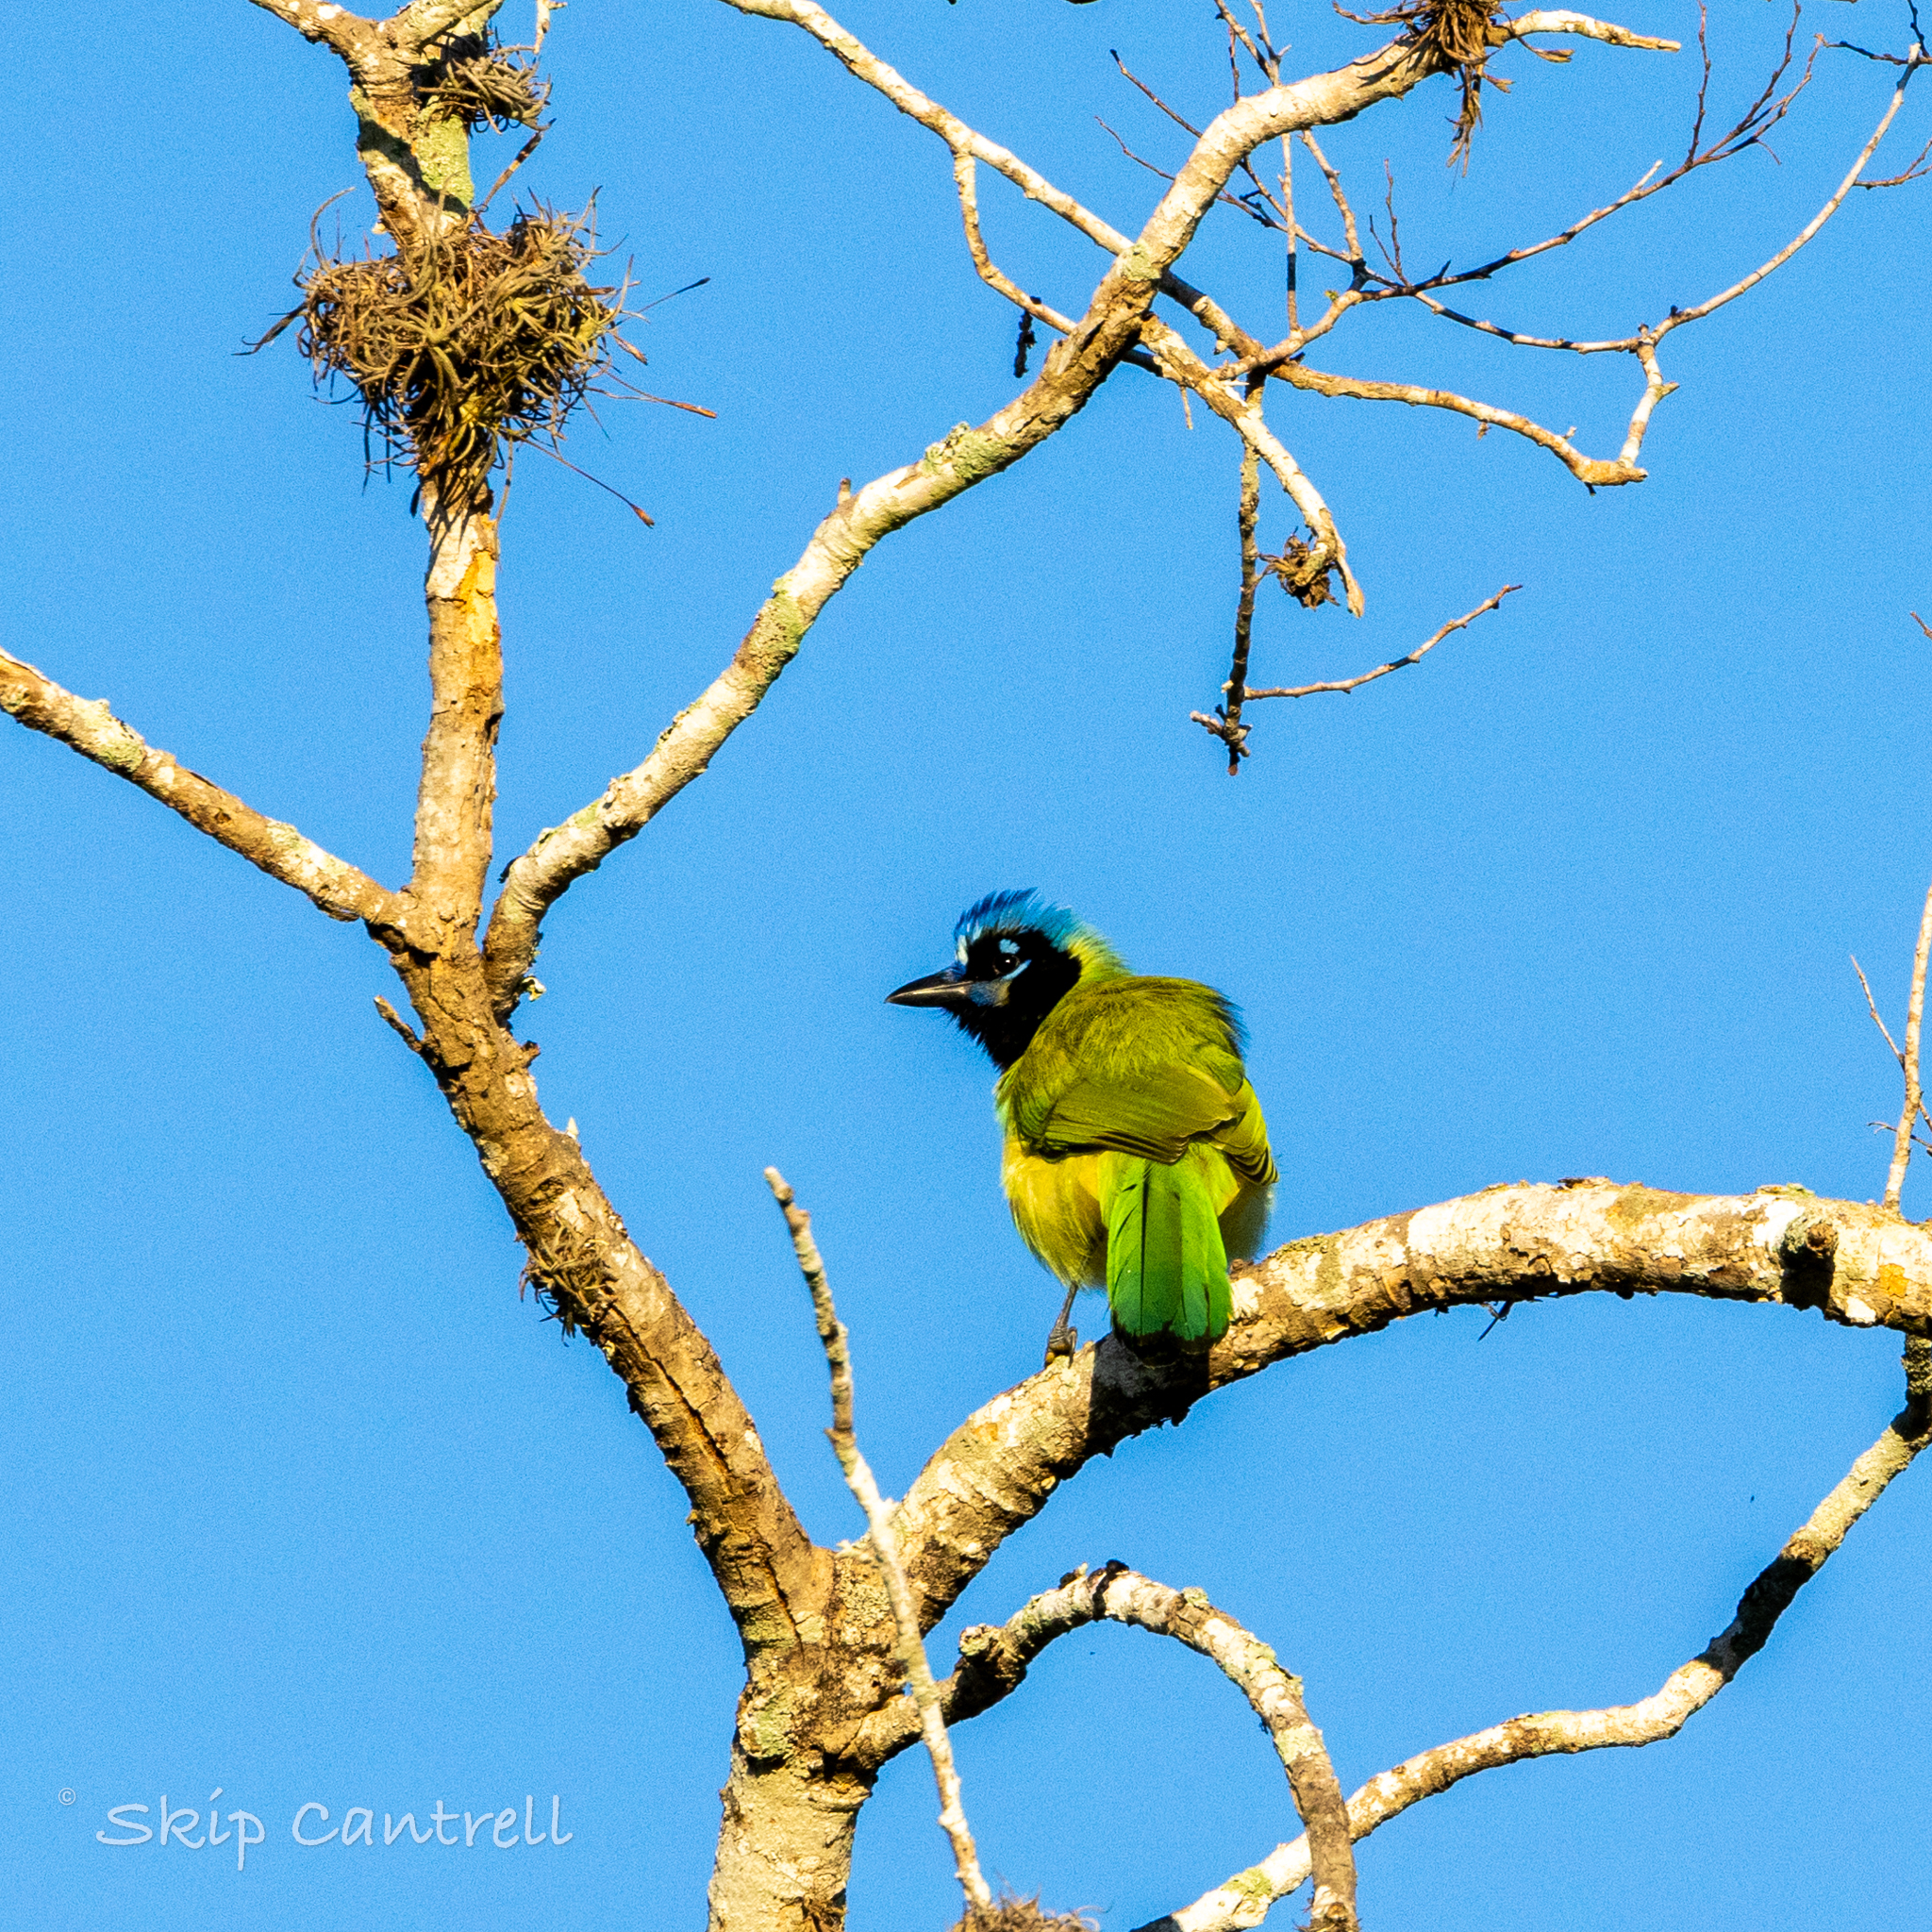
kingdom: Animalia
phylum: Chordata
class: Aves
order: Passeriformes
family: Corvidae
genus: Cyanocorax
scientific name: Cyanocorax yncas
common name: Green jay
